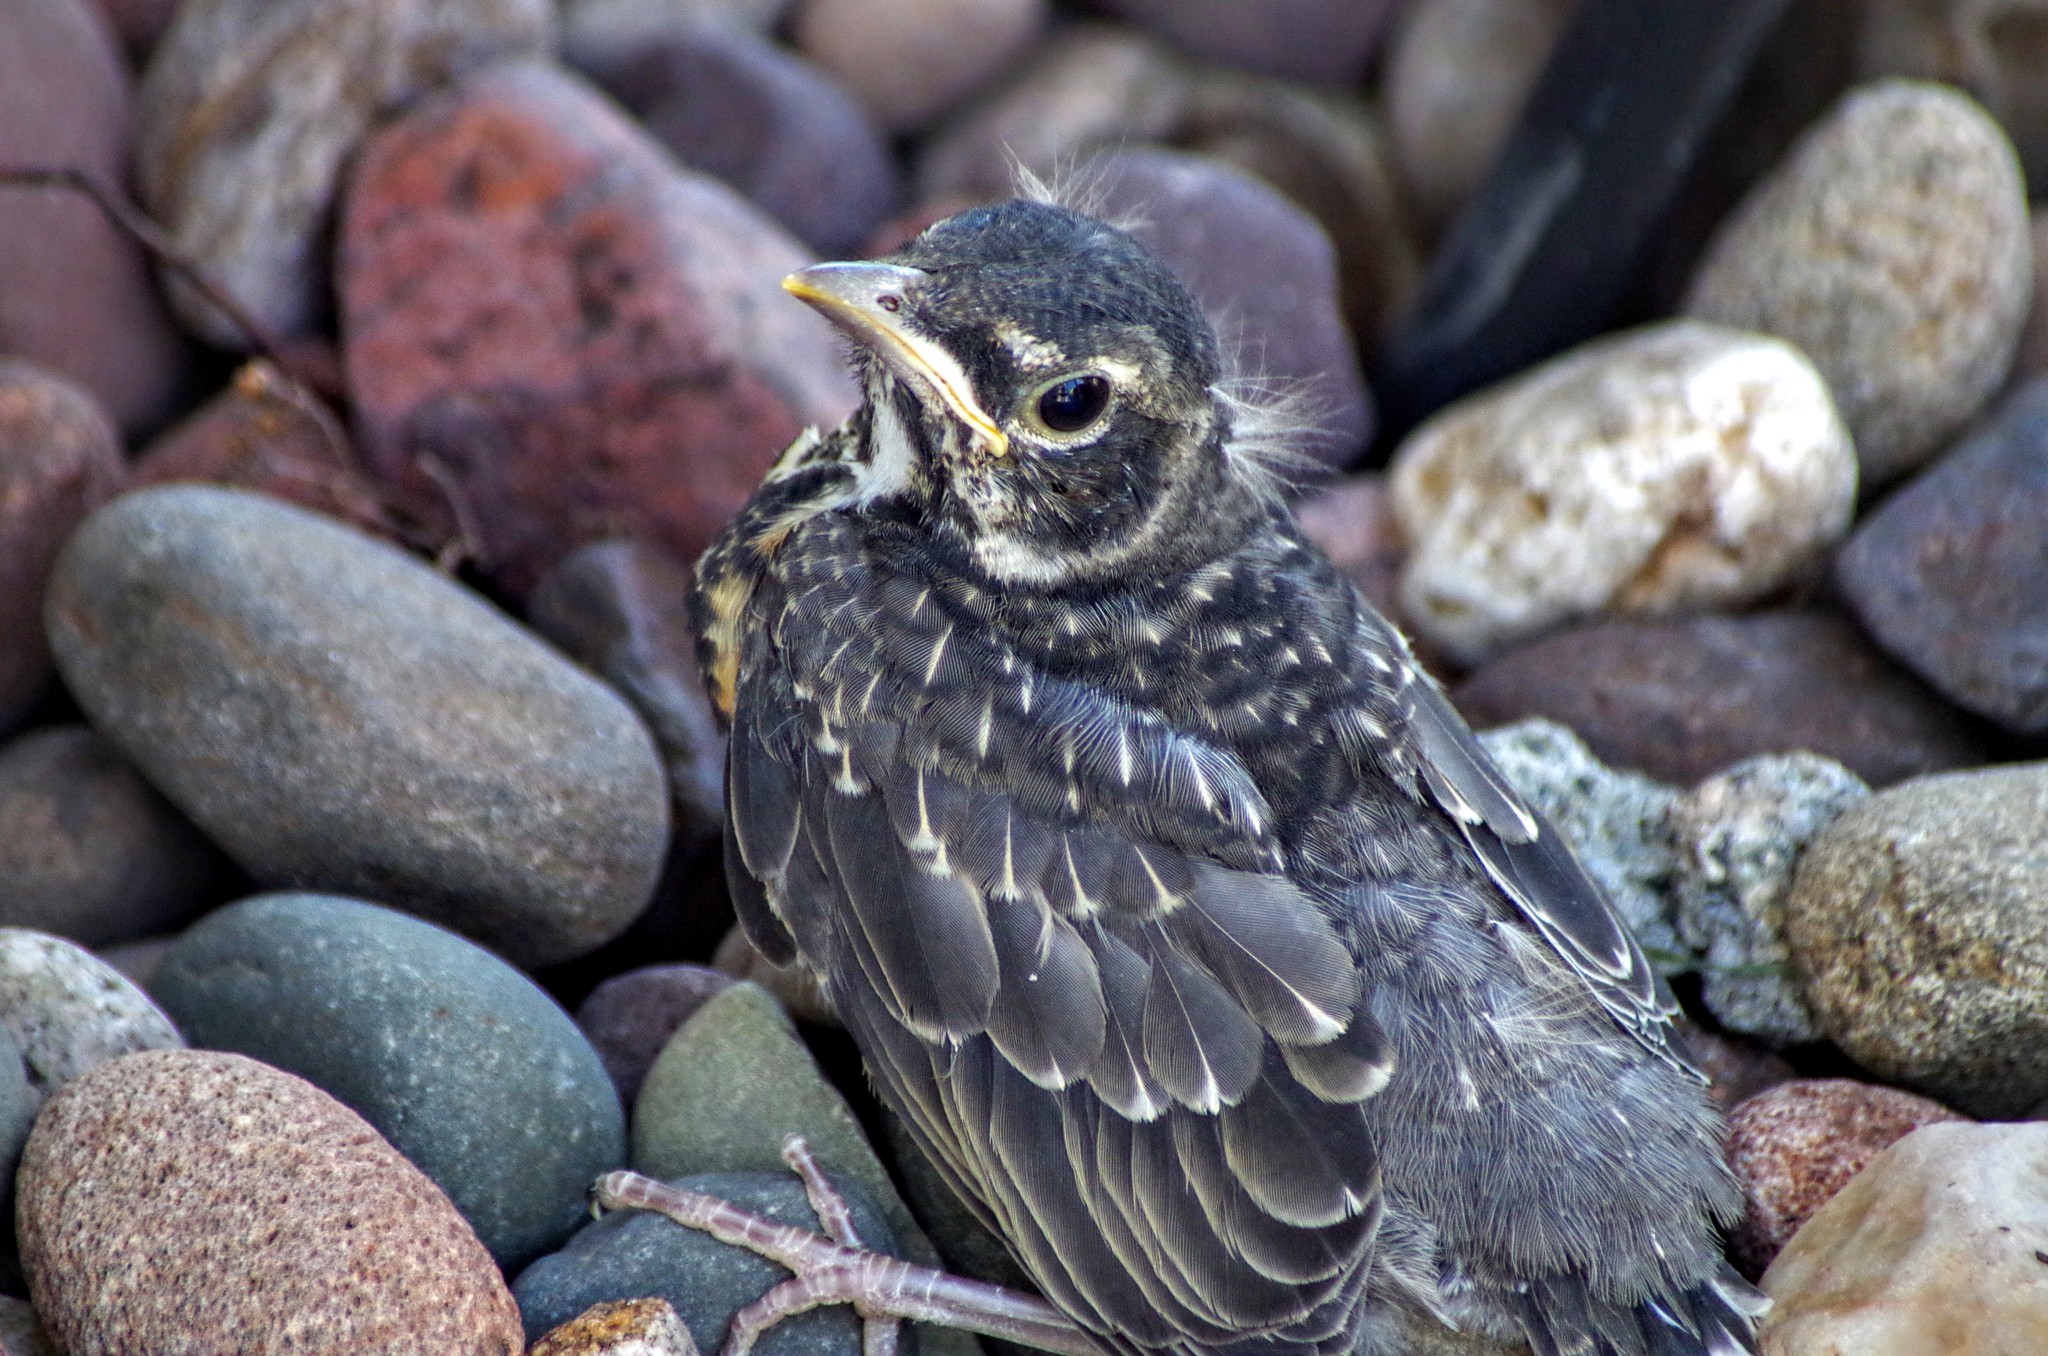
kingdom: Animalia
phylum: Chordata
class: Aves
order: Passeriformes
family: Turdidae
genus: Turdus
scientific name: Turdus migratorius
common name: American robin
